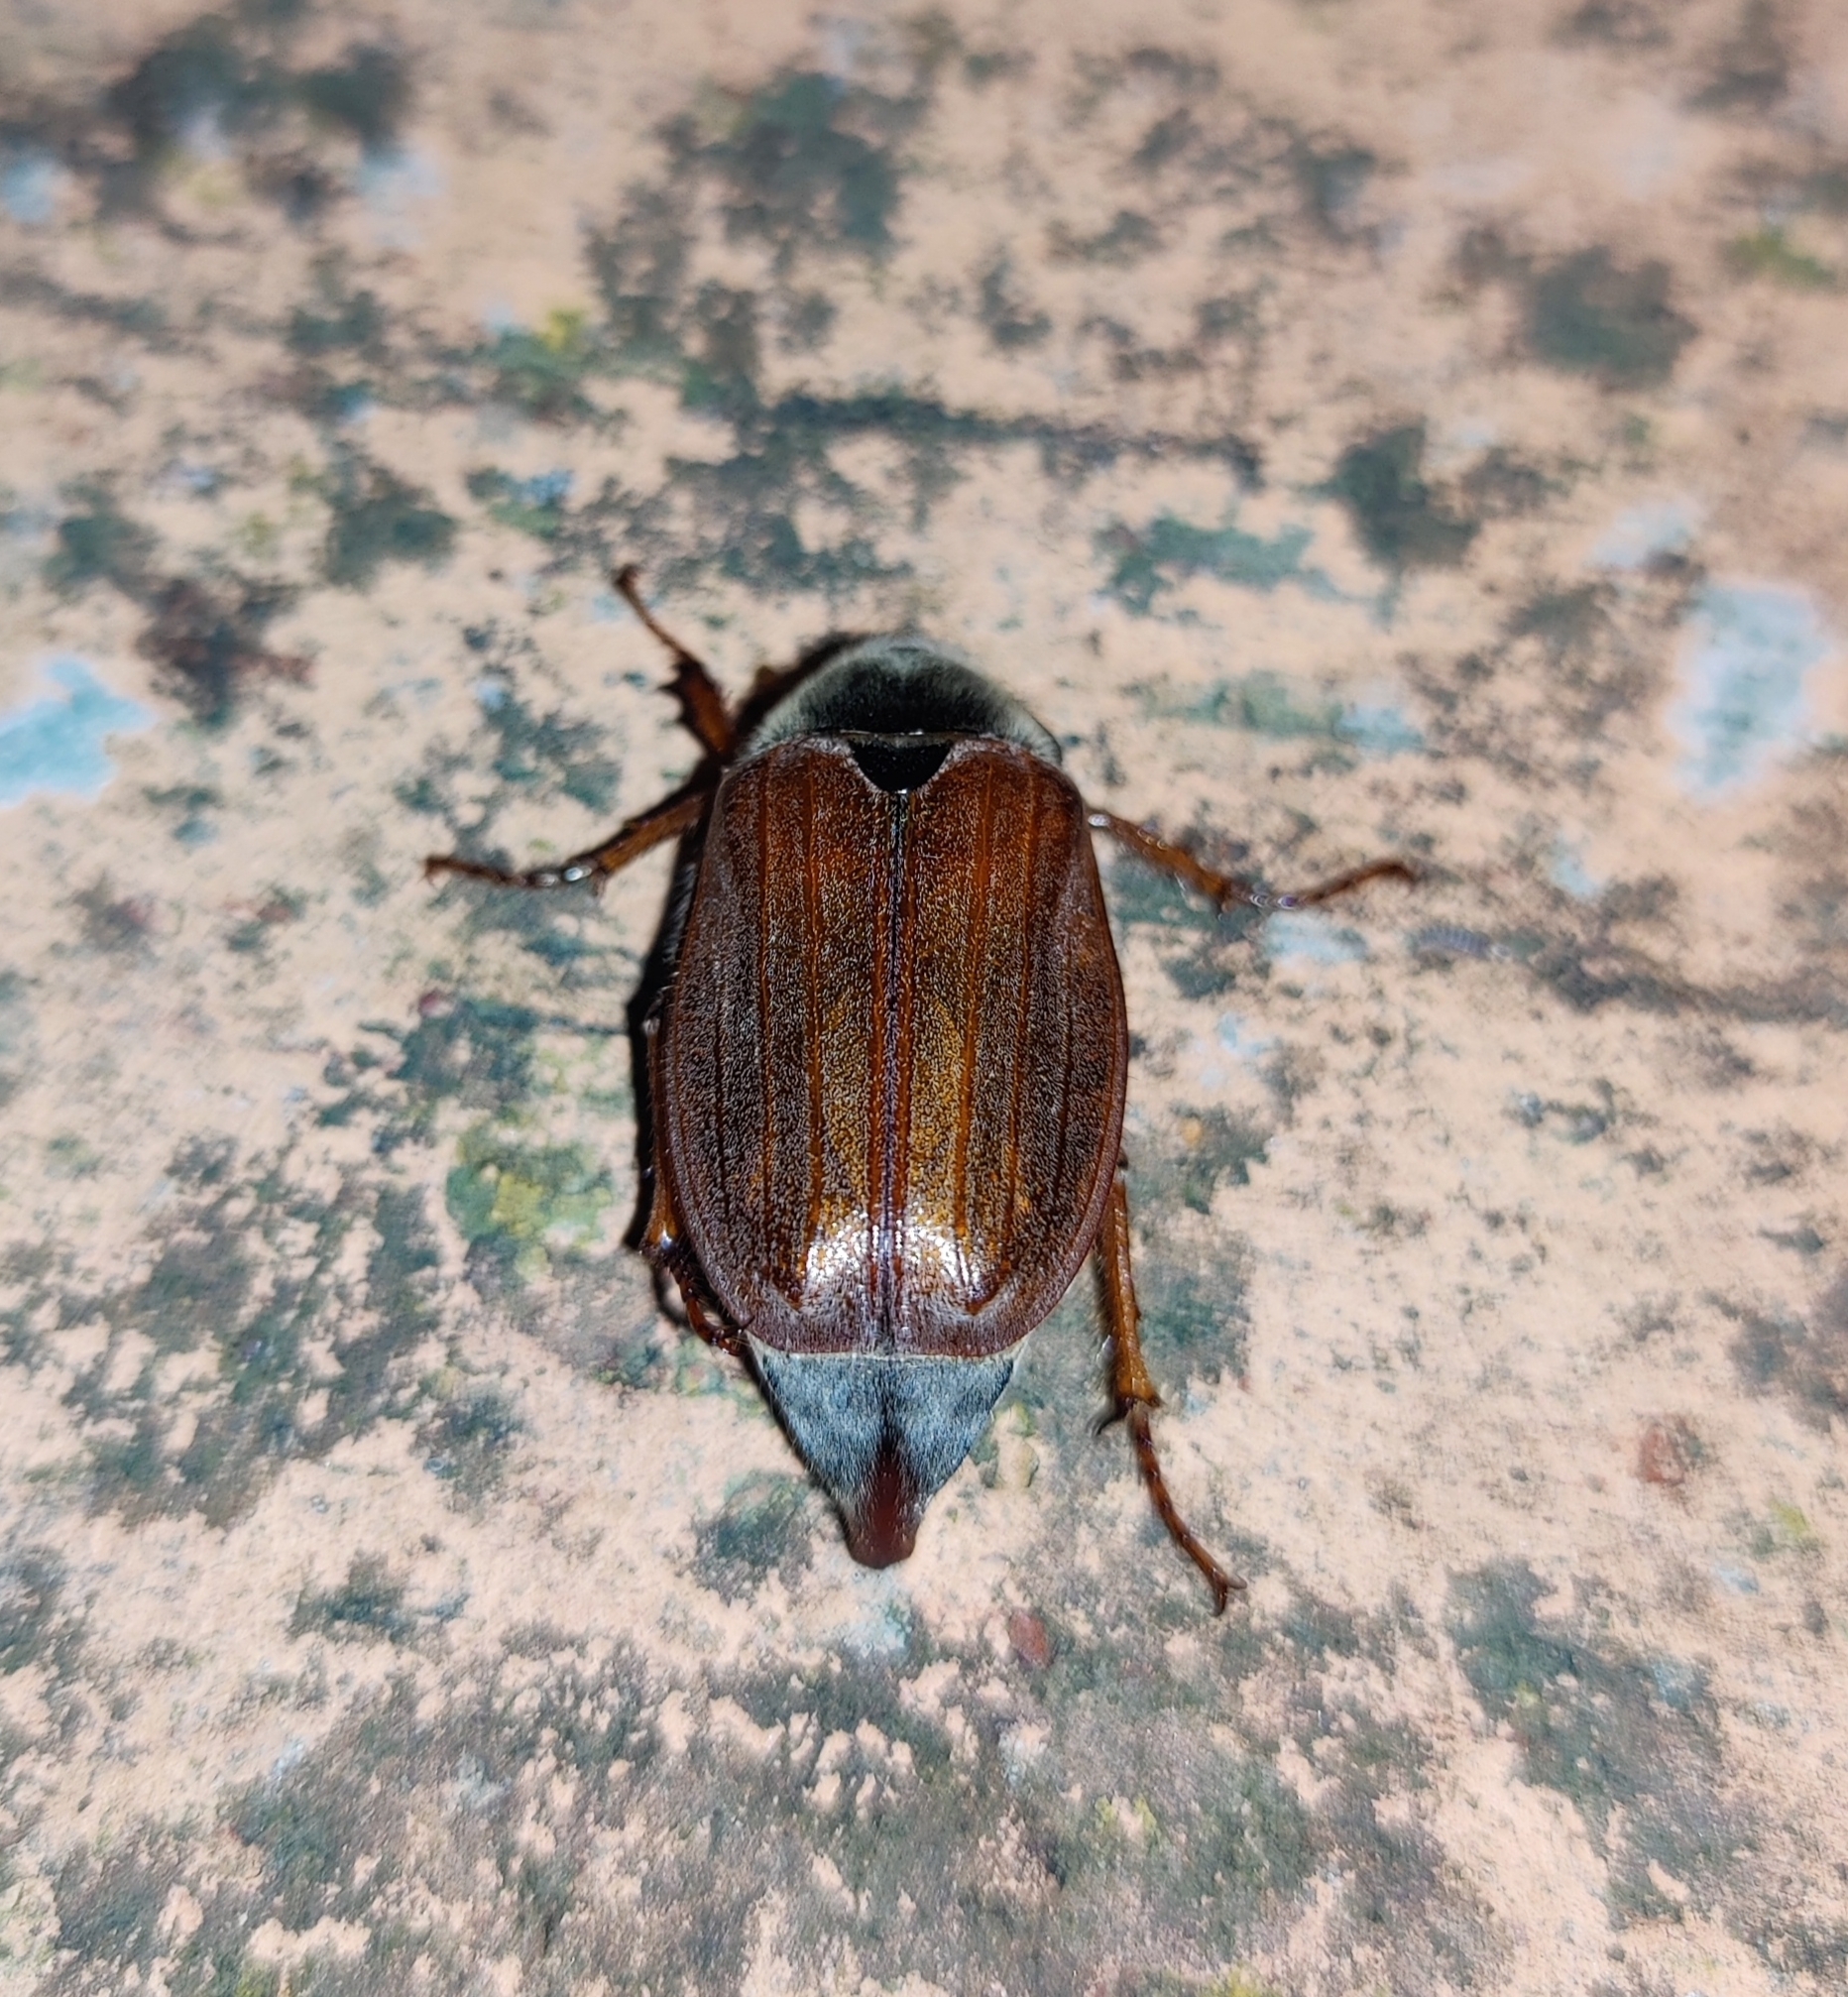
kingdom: Animalia
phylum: Arthropoda
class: Insecta
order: Coleoptera
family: Scarabaeidae
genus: Melolontha
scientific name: Melolontha melolontha
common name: Cockchafer maybeetle
